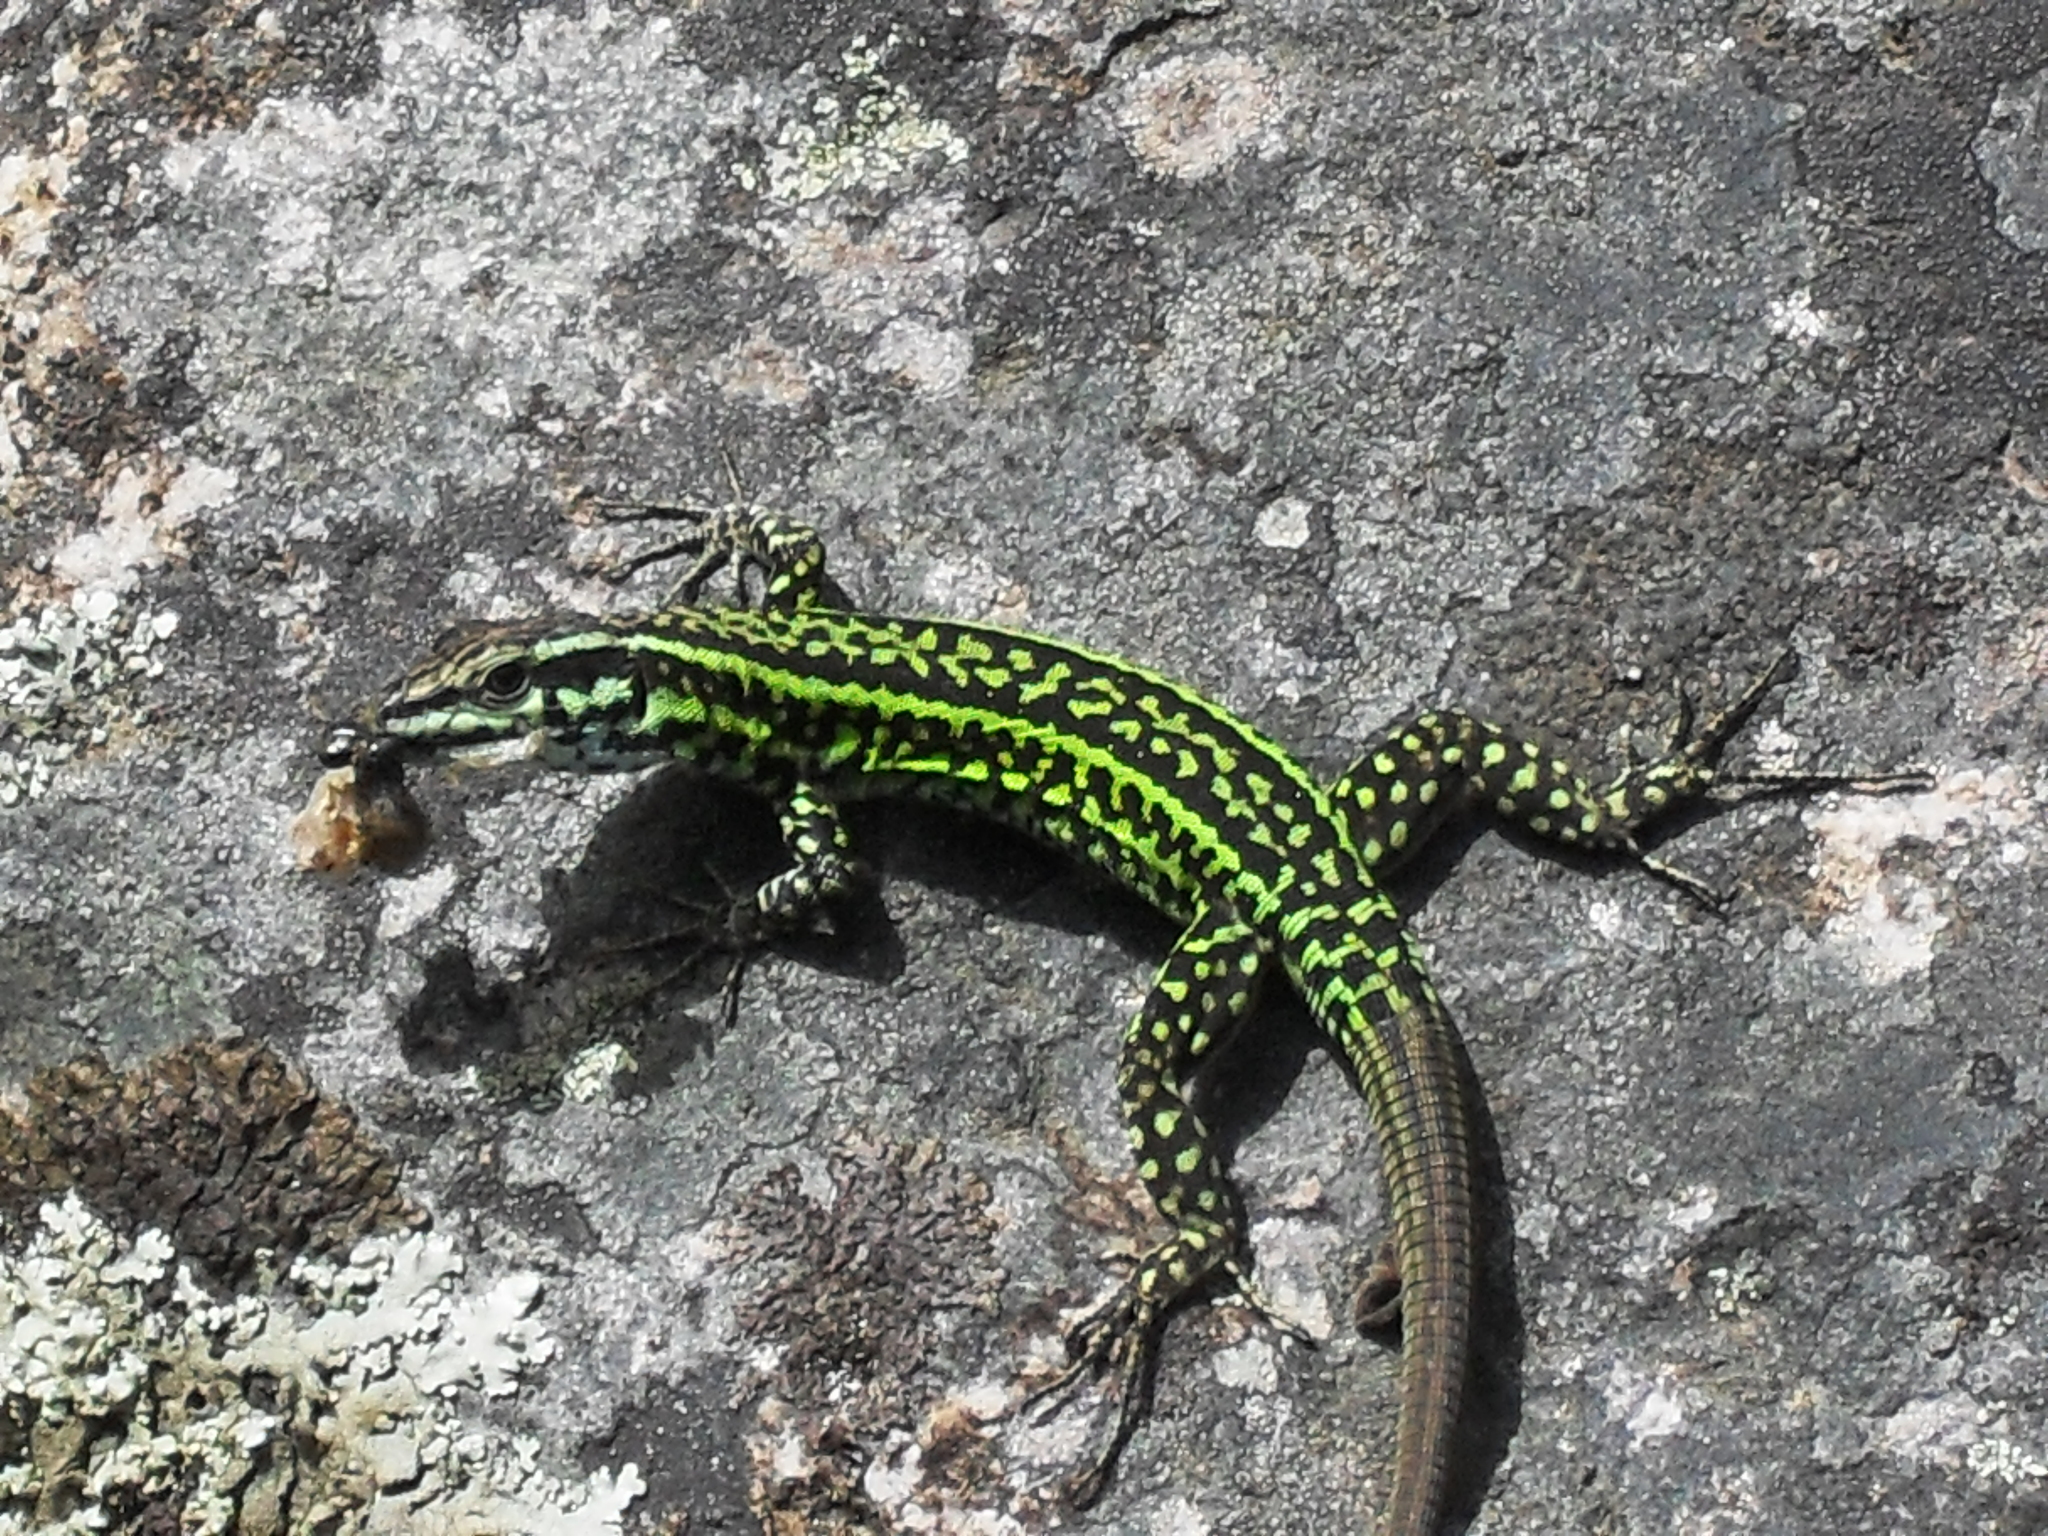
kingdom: Animalia
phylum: Chordata
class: Squamata
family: Lacertidae
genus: Podarcis
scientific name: Podarcis tiliguerta
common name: Tyrrhenian wall lizard
